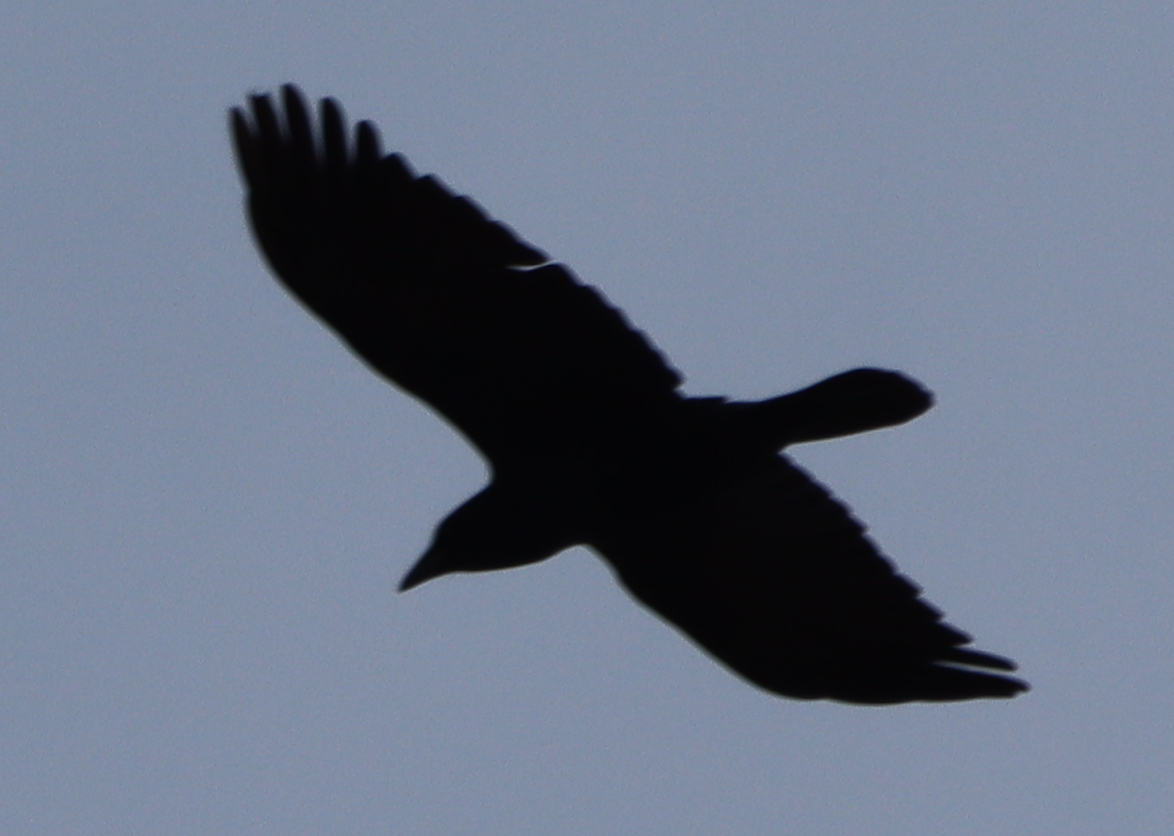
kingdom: Animalia
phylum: Chordata
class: Aves
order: Passeriformes
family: Corvidae
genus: Corvus
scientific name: Corvus brachyrhynchos
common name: American crow
